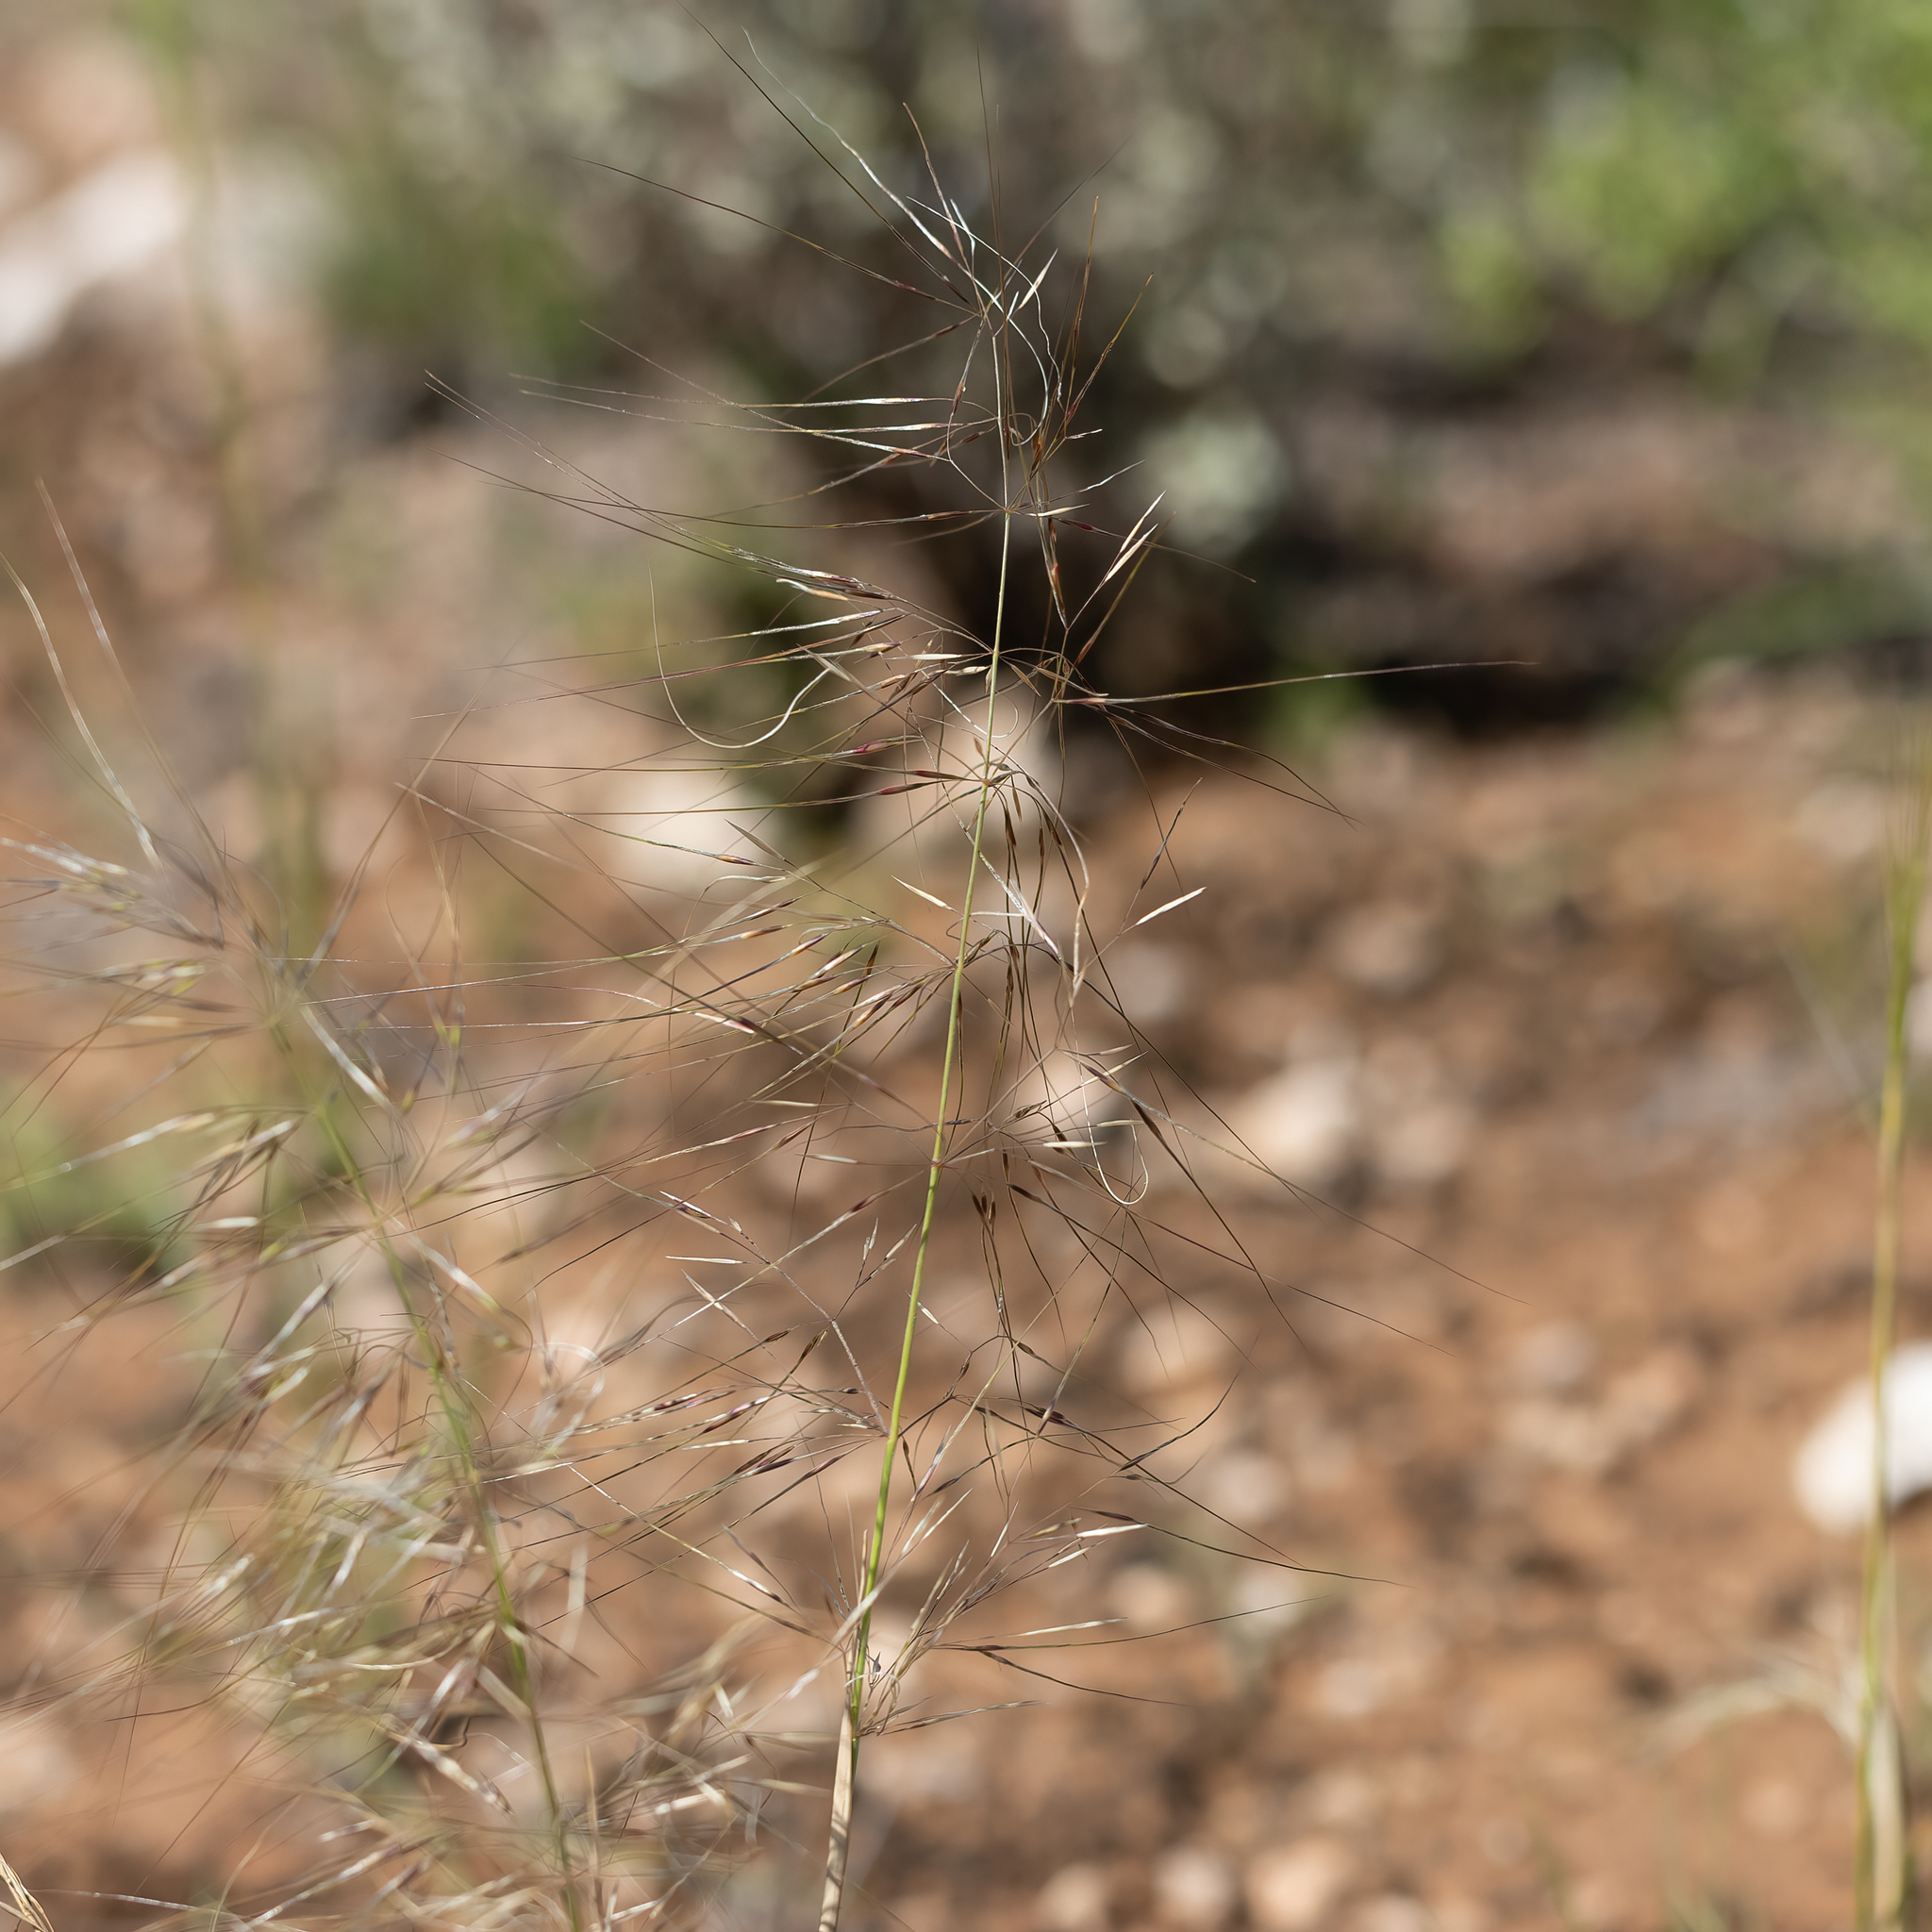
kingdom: Plantae
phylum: Tracheophyta
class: Liliopsida
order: Poales
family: Poaceae
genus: Austrostipa
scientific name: Austrostipa drummondii
